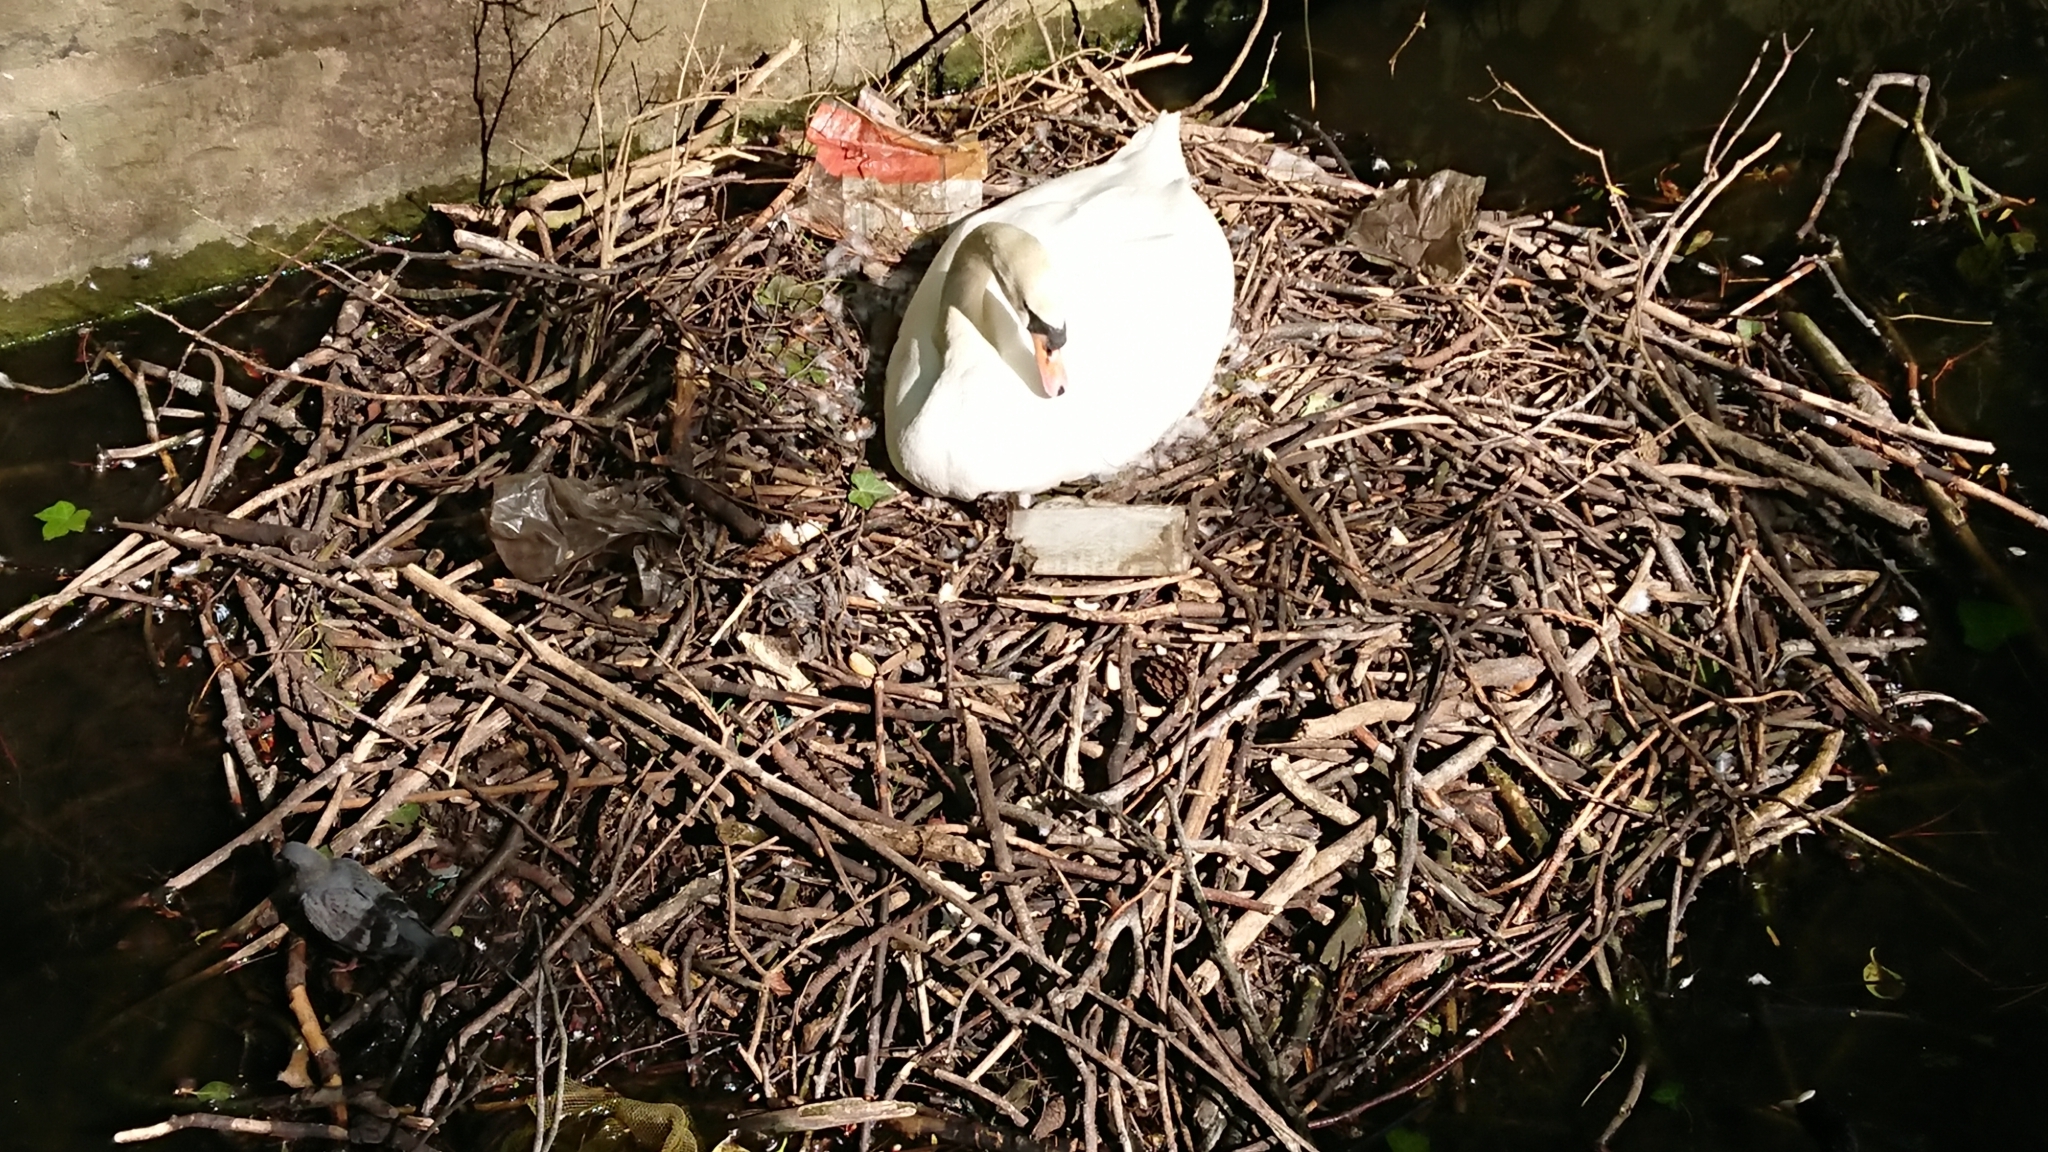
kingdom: Animalia
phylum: Chordata
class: Aves
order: Anseriformes
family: Anatidae
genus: Cygnus
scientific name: Cygnus olor
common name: Mute swan
